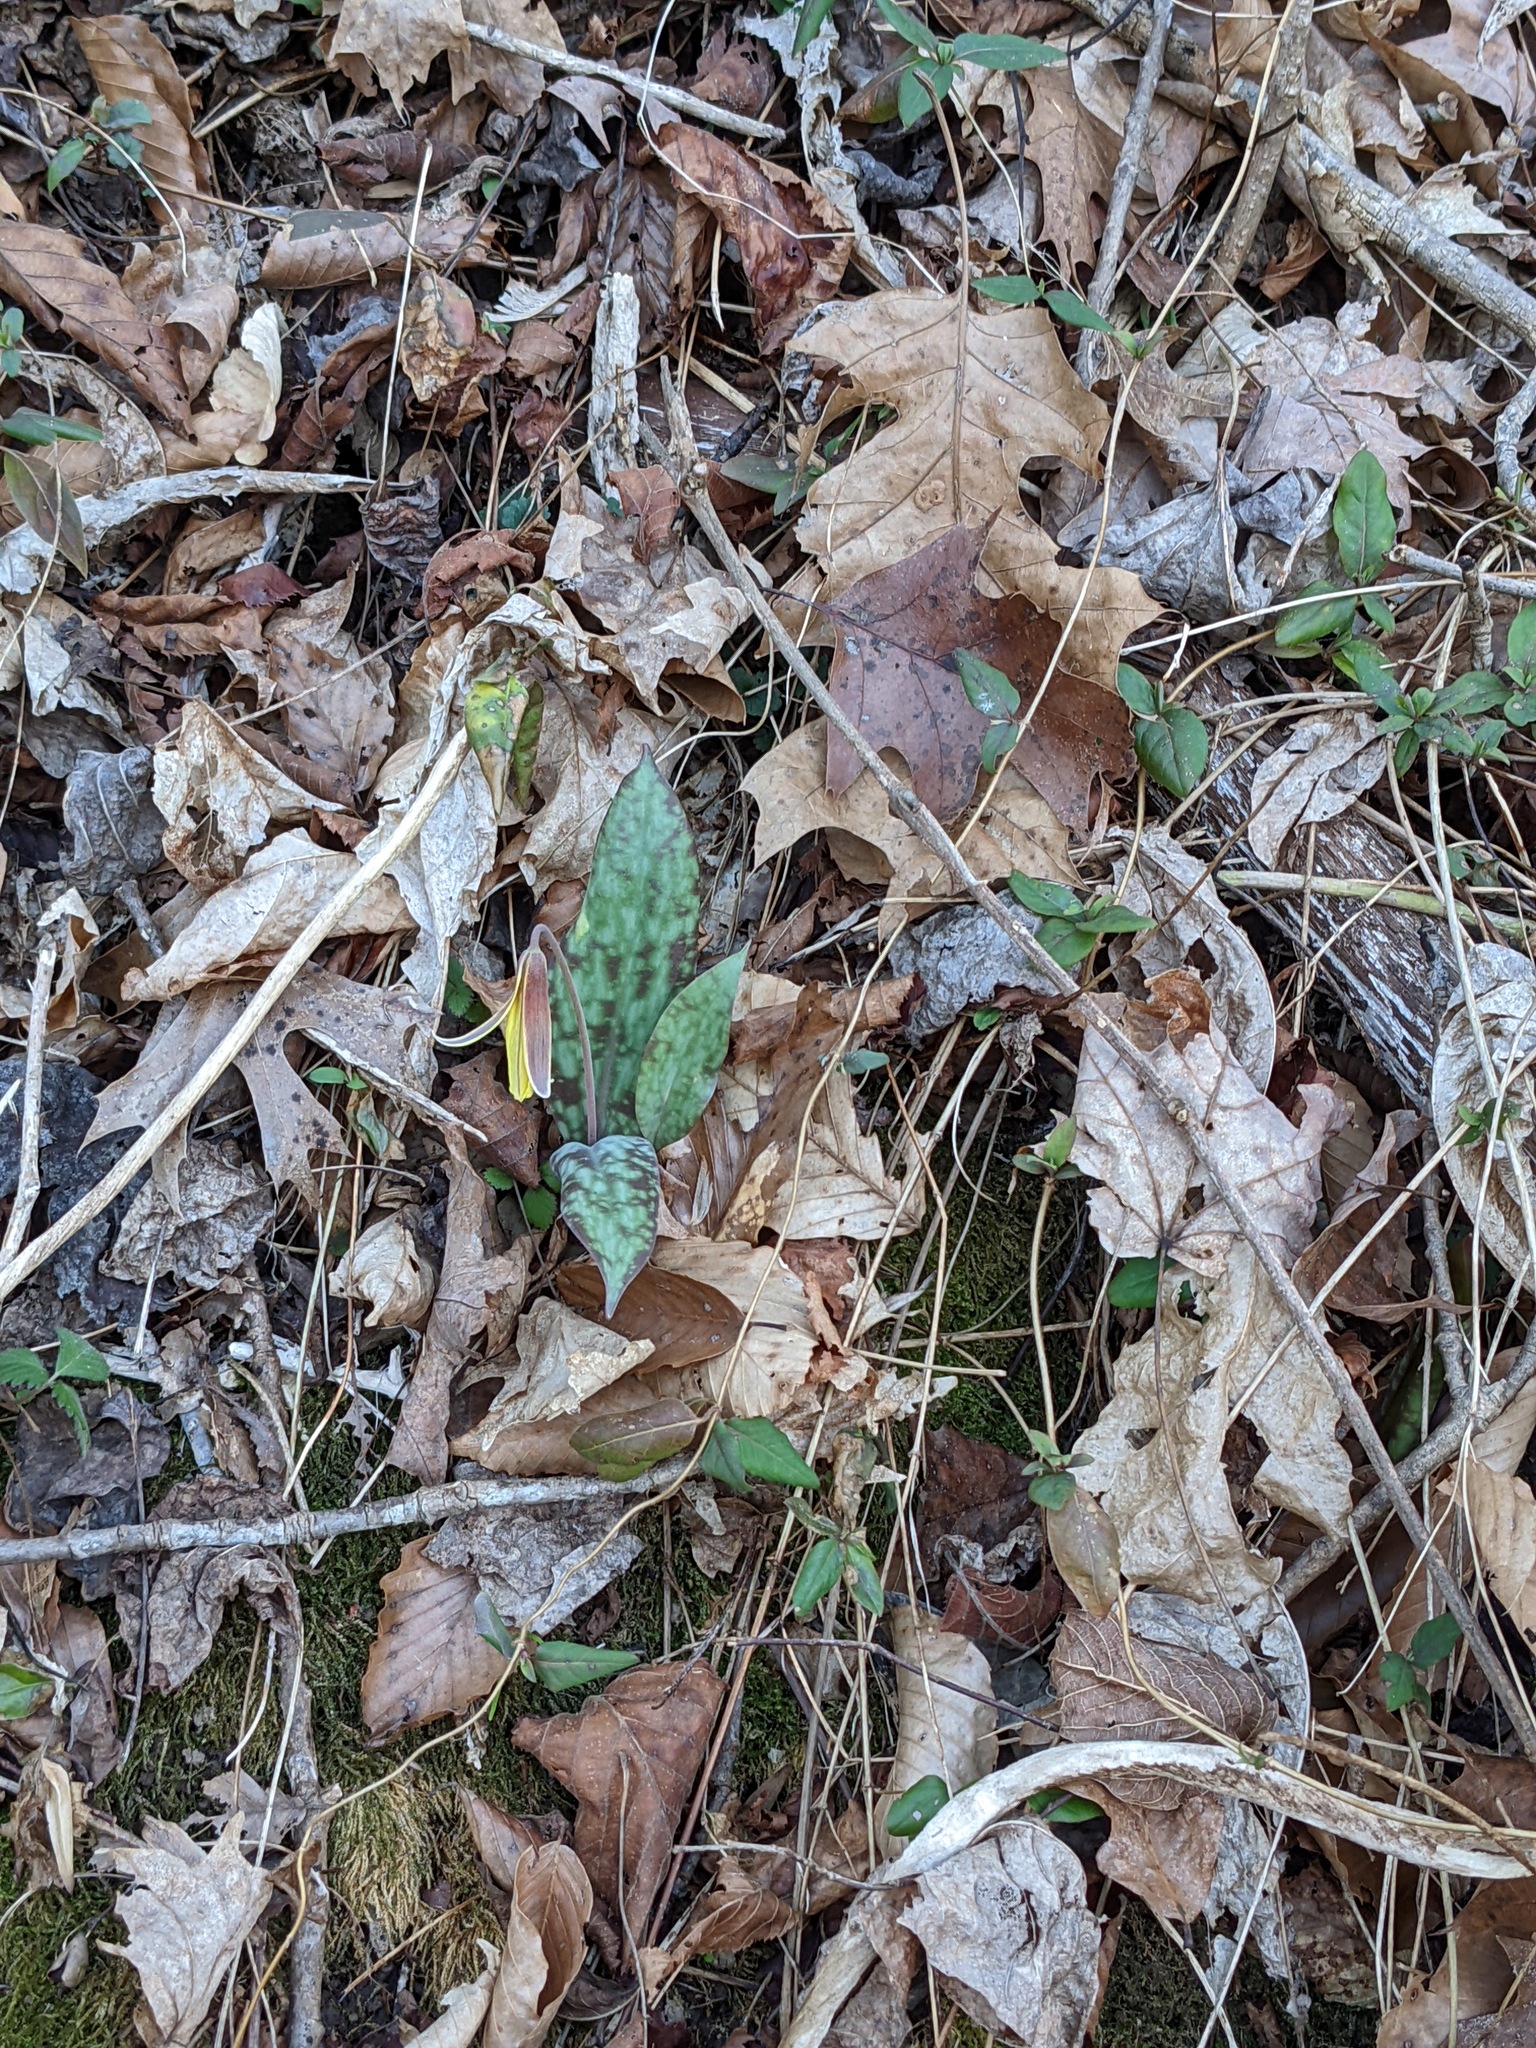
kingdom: Plantae
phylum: Tracheophyta
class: Liliopsida
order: Liliales
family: Liliaceae
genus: Erythronium
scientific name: Erythronium umbilicatum
